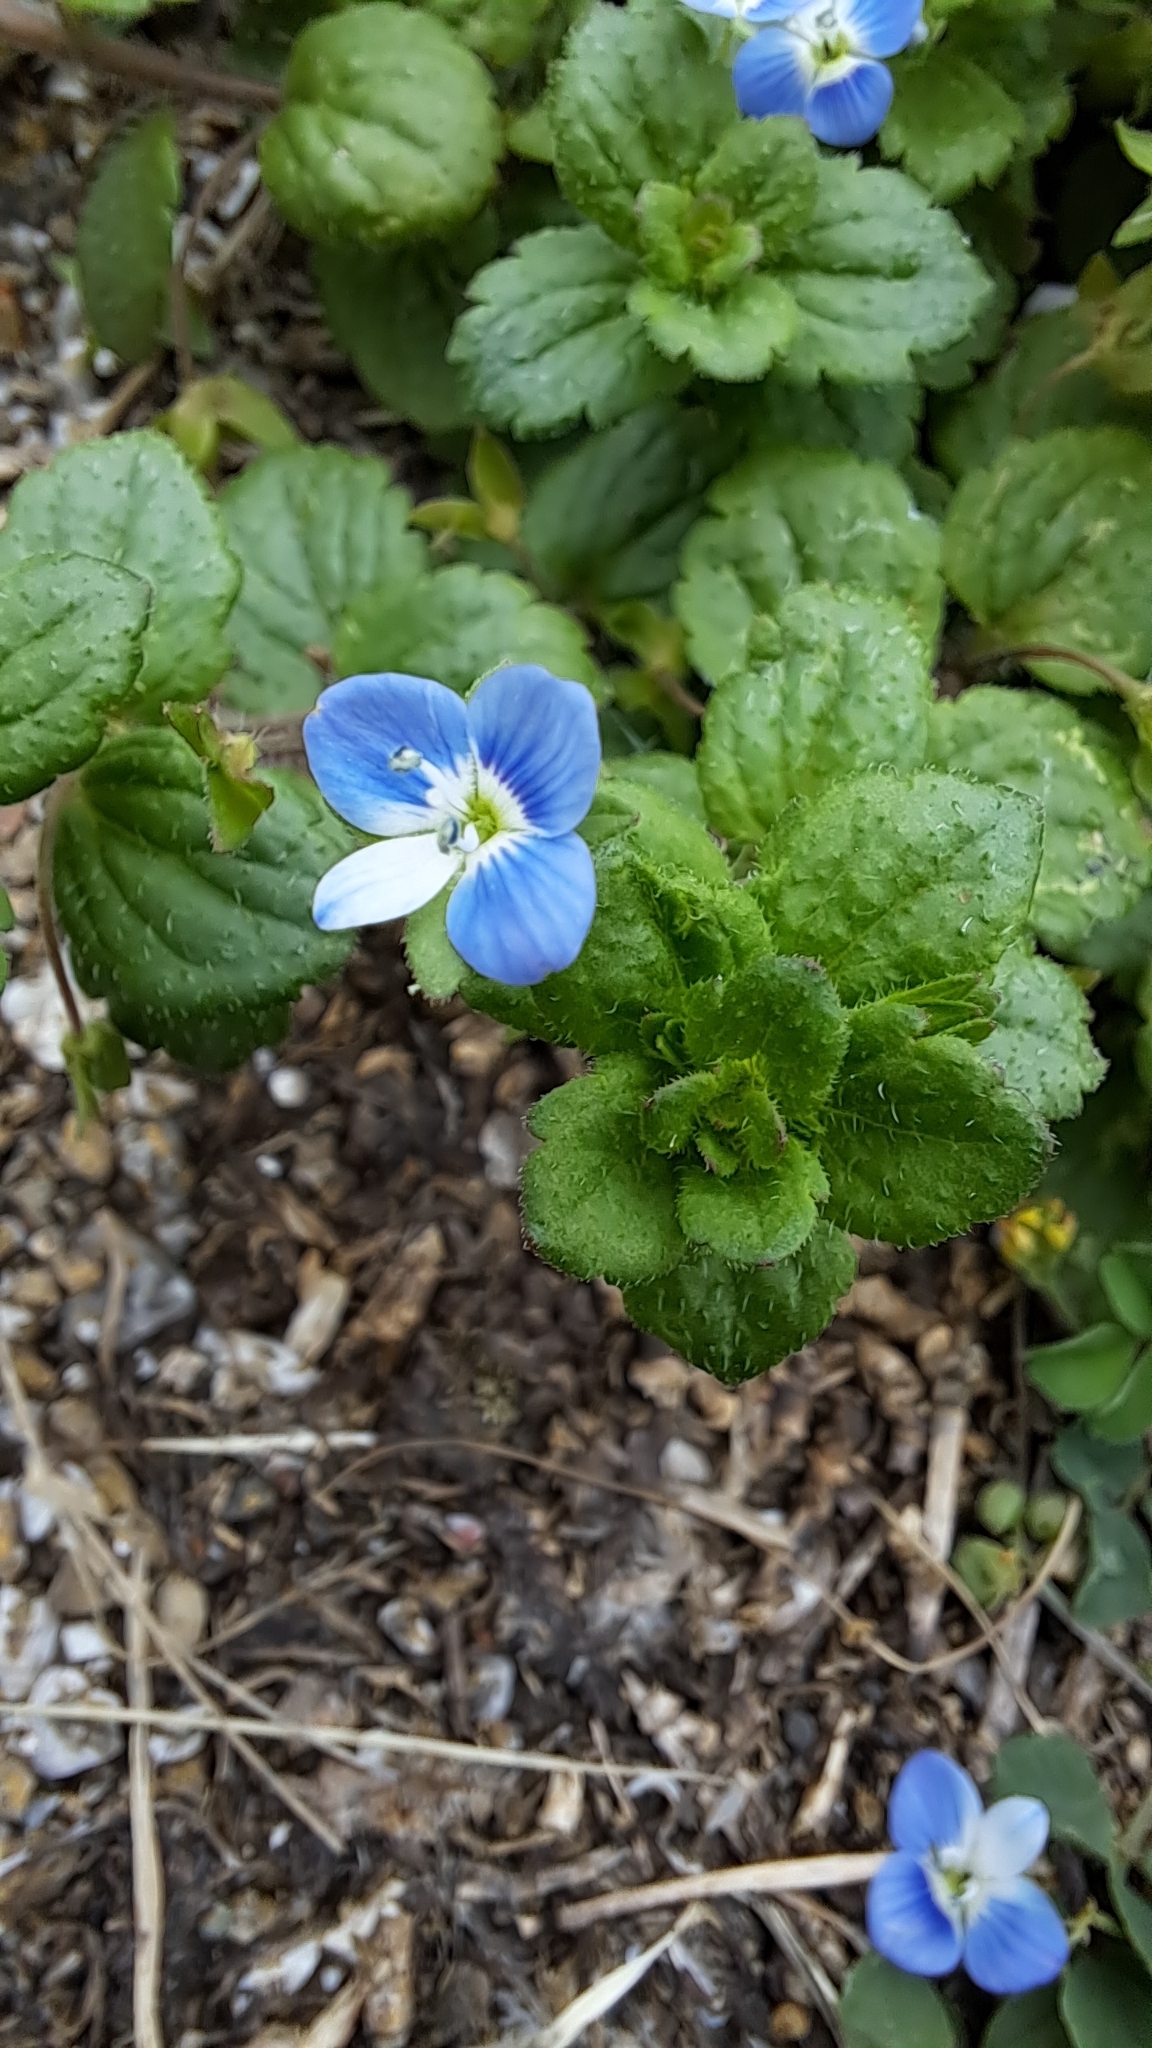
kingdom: Plantae
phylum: Tracheophyta
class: Magnoliopsida
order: Lamiales
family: Plantaginaceae
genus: Veronica
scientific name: Veronica persica
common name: Common field-speedwell
